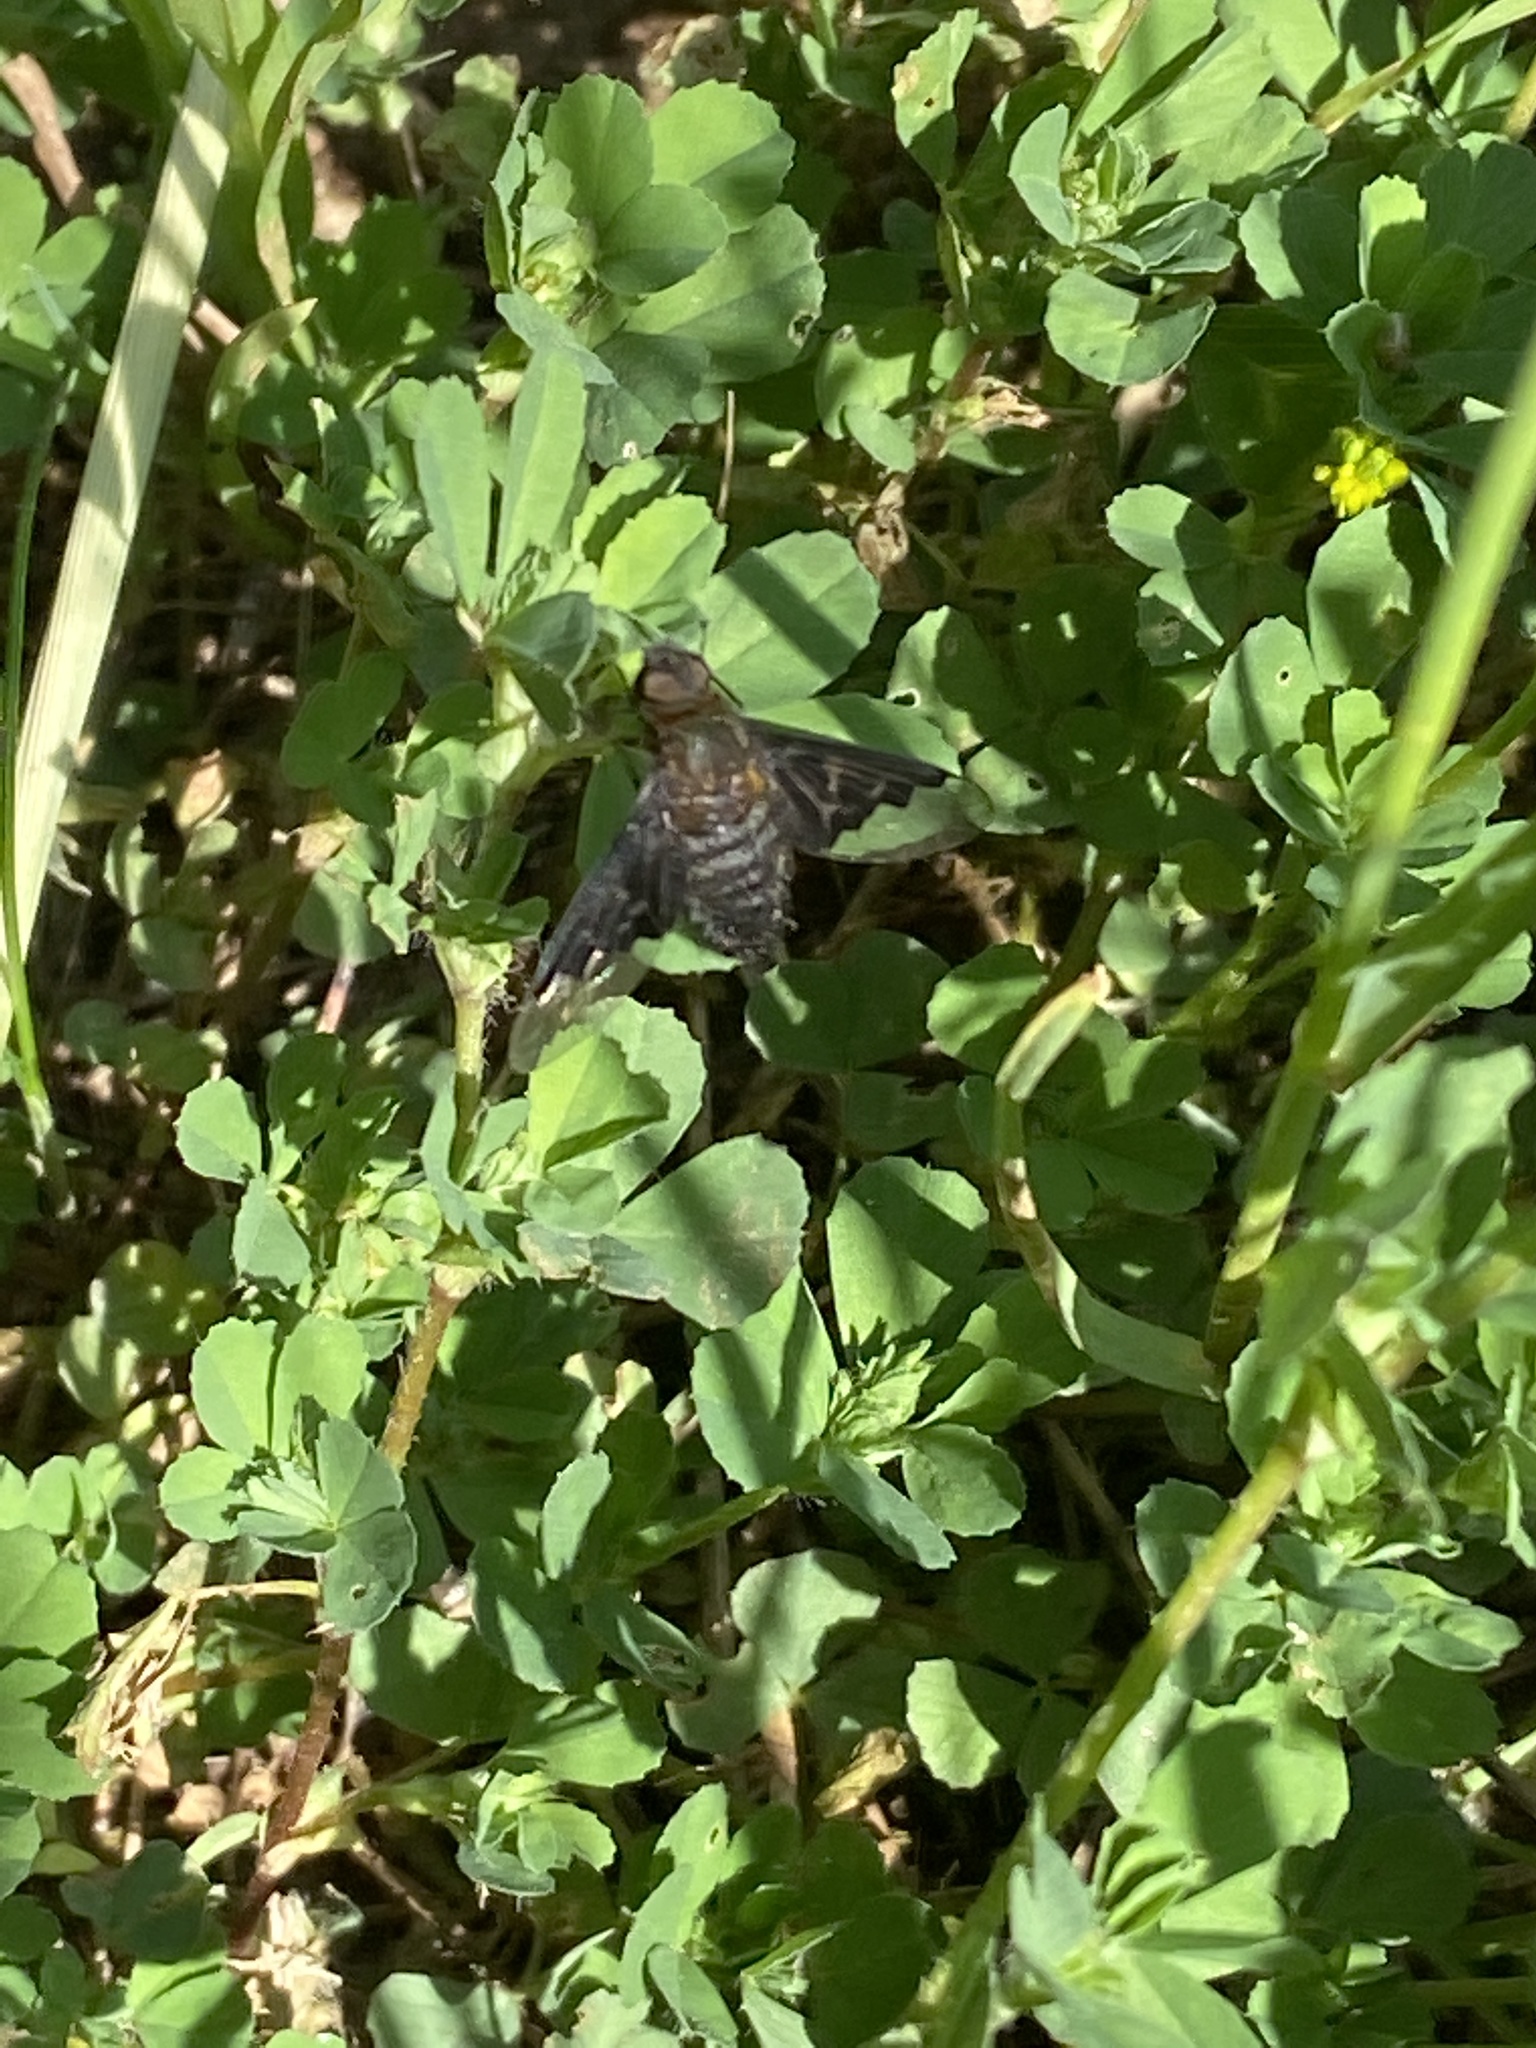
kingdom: Animalia
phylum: Arthropoda
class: Insecta
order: Diptera
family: Bombyliidae
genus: Hemipenthes
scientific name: Hemipenthes morio
